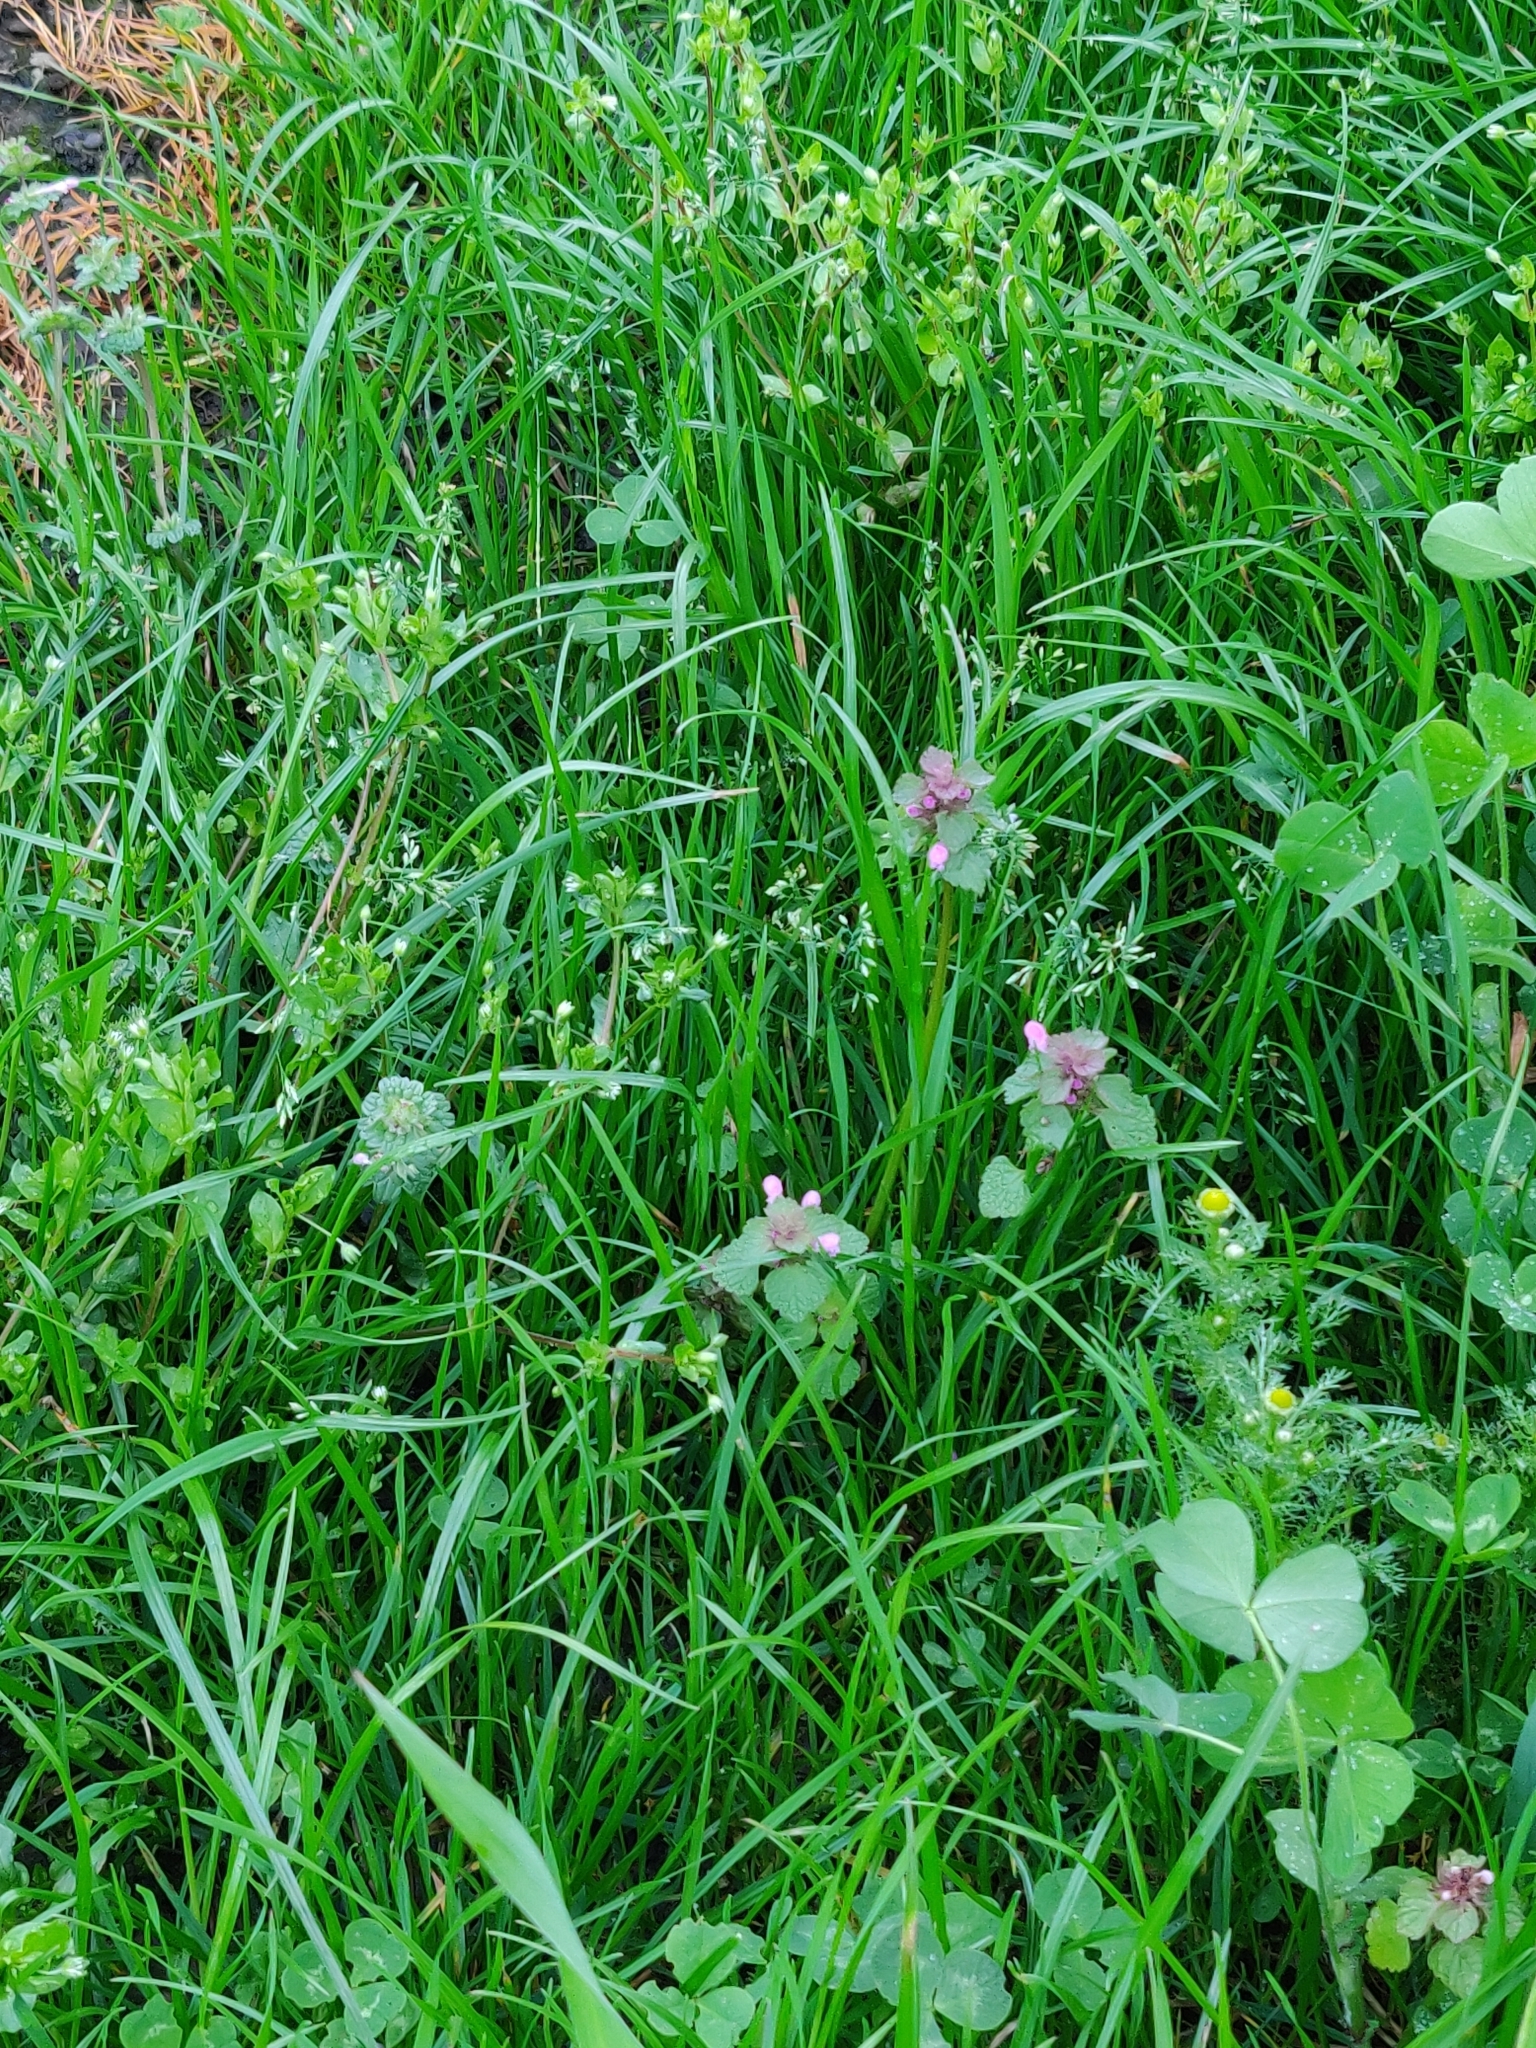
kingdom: Plantae
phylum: Tracheophyta
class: Magnoliopsida
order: Lamiales
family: Lamiaceae
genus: Lamium
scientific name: Lamium purpureum
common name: Red dead-nettle
